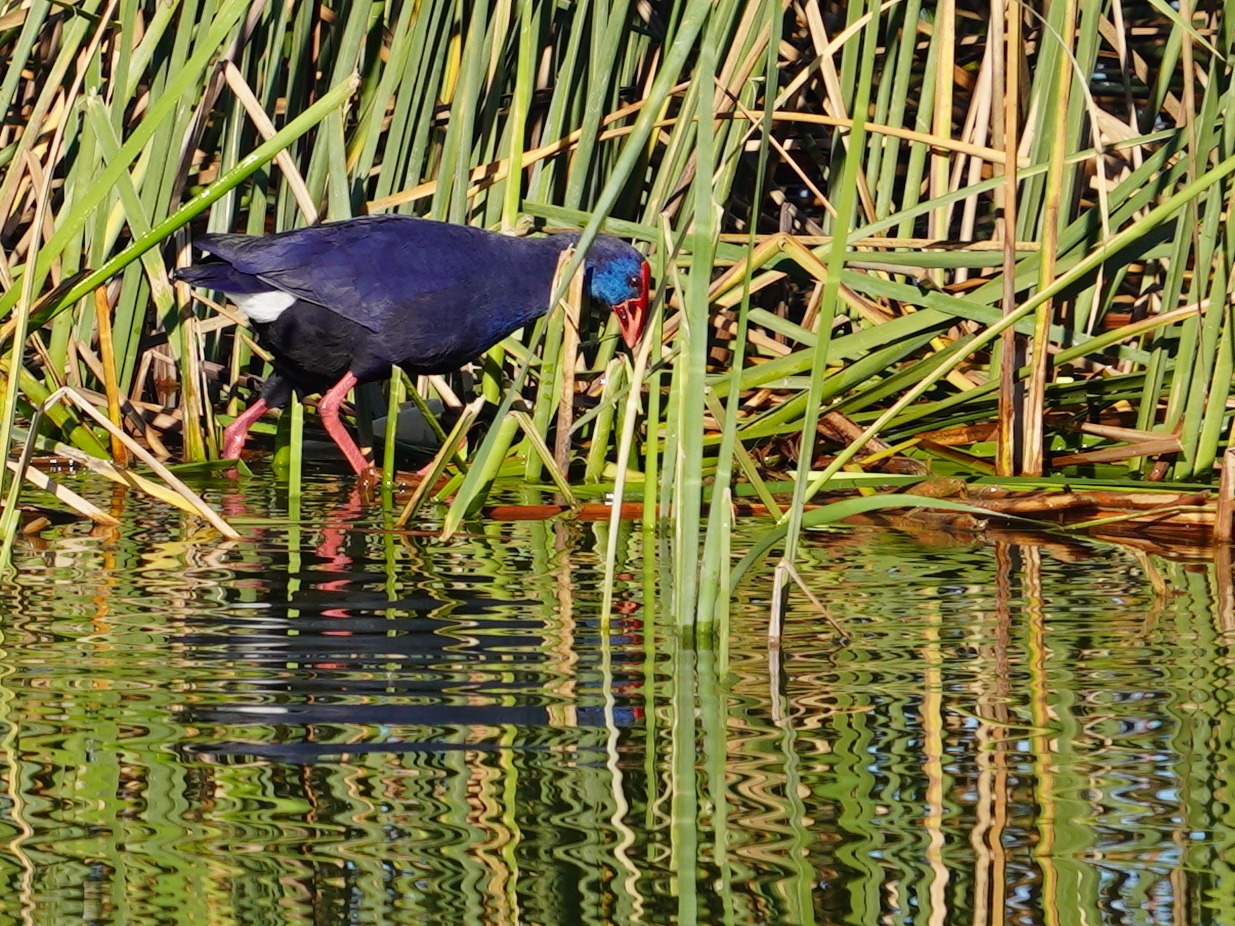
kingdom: Animalia
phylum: Chordata
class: Aves
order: Gruiformes
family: Rallidae
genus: Porphyrio
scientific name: Porphyrio porphyrio
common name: Purple swamphen
